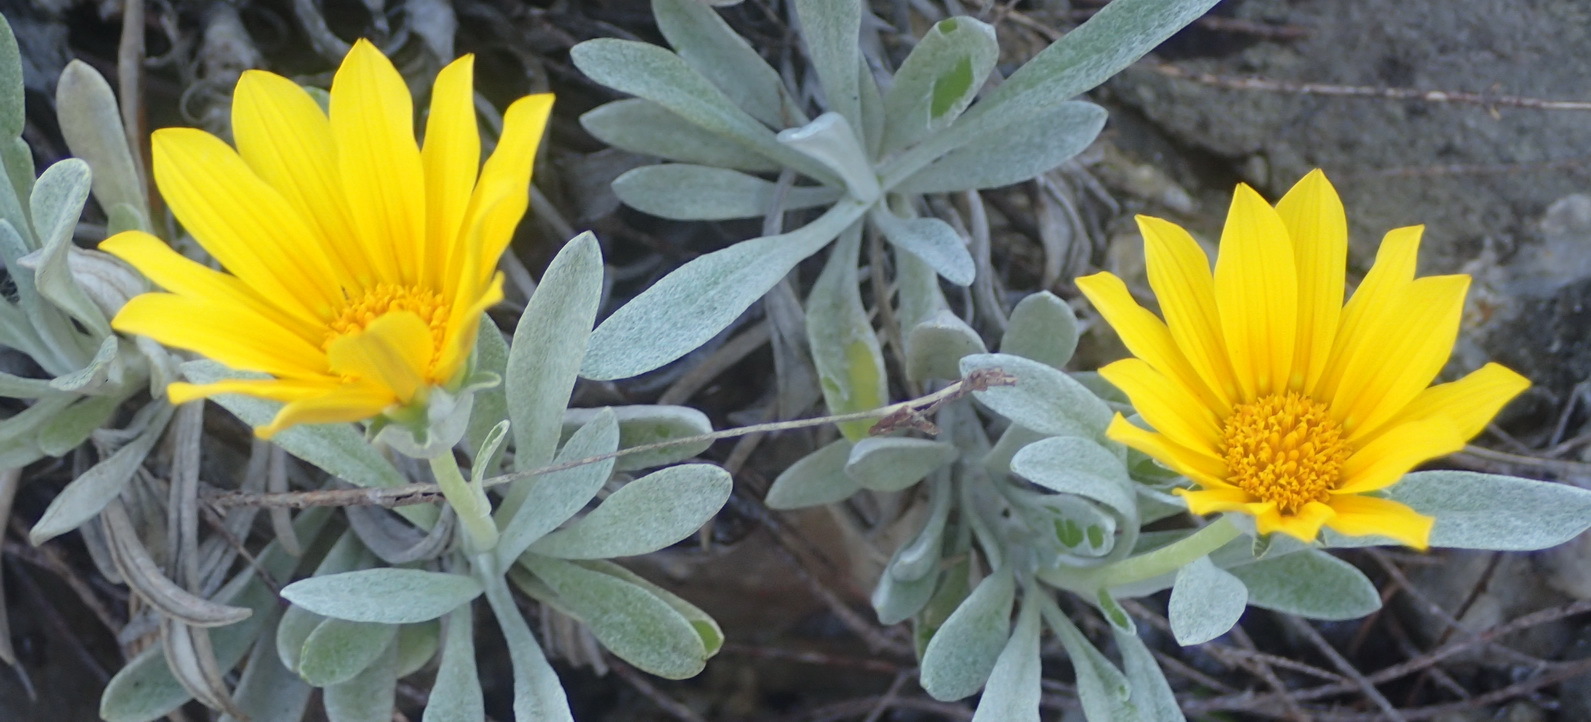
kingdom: Plantae
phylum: Tracheophyta
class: Magnoliopsida
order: Asterales
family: Asteraceae
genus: Gazania
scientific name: Gazania rigens
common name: Treasureflower
